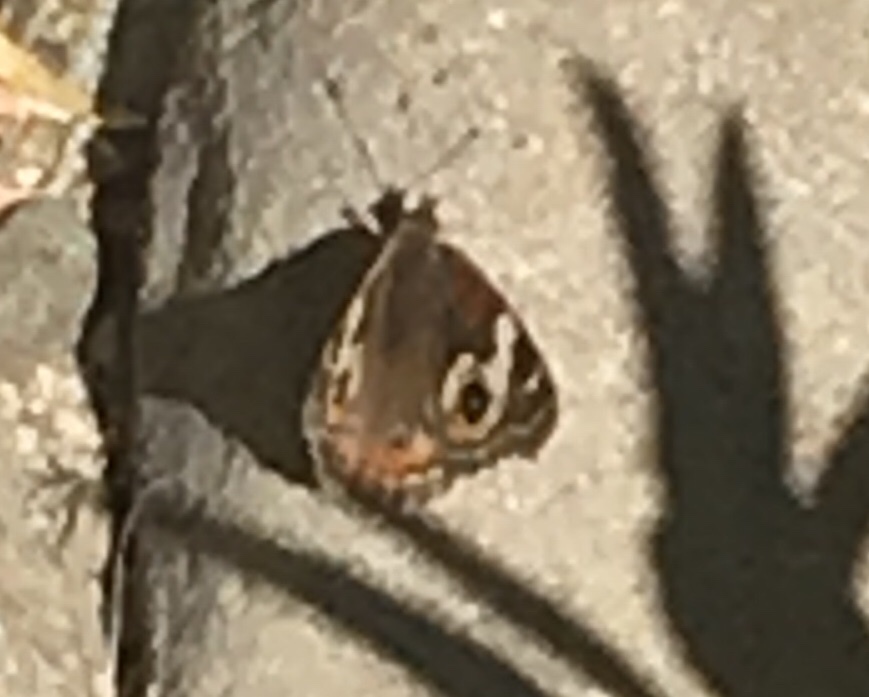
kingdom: Animalia
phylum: Arthropoda
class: Insecta
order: Lepidoptera
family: Nymphalidae
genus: Junonia
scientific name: Junonia grisea
